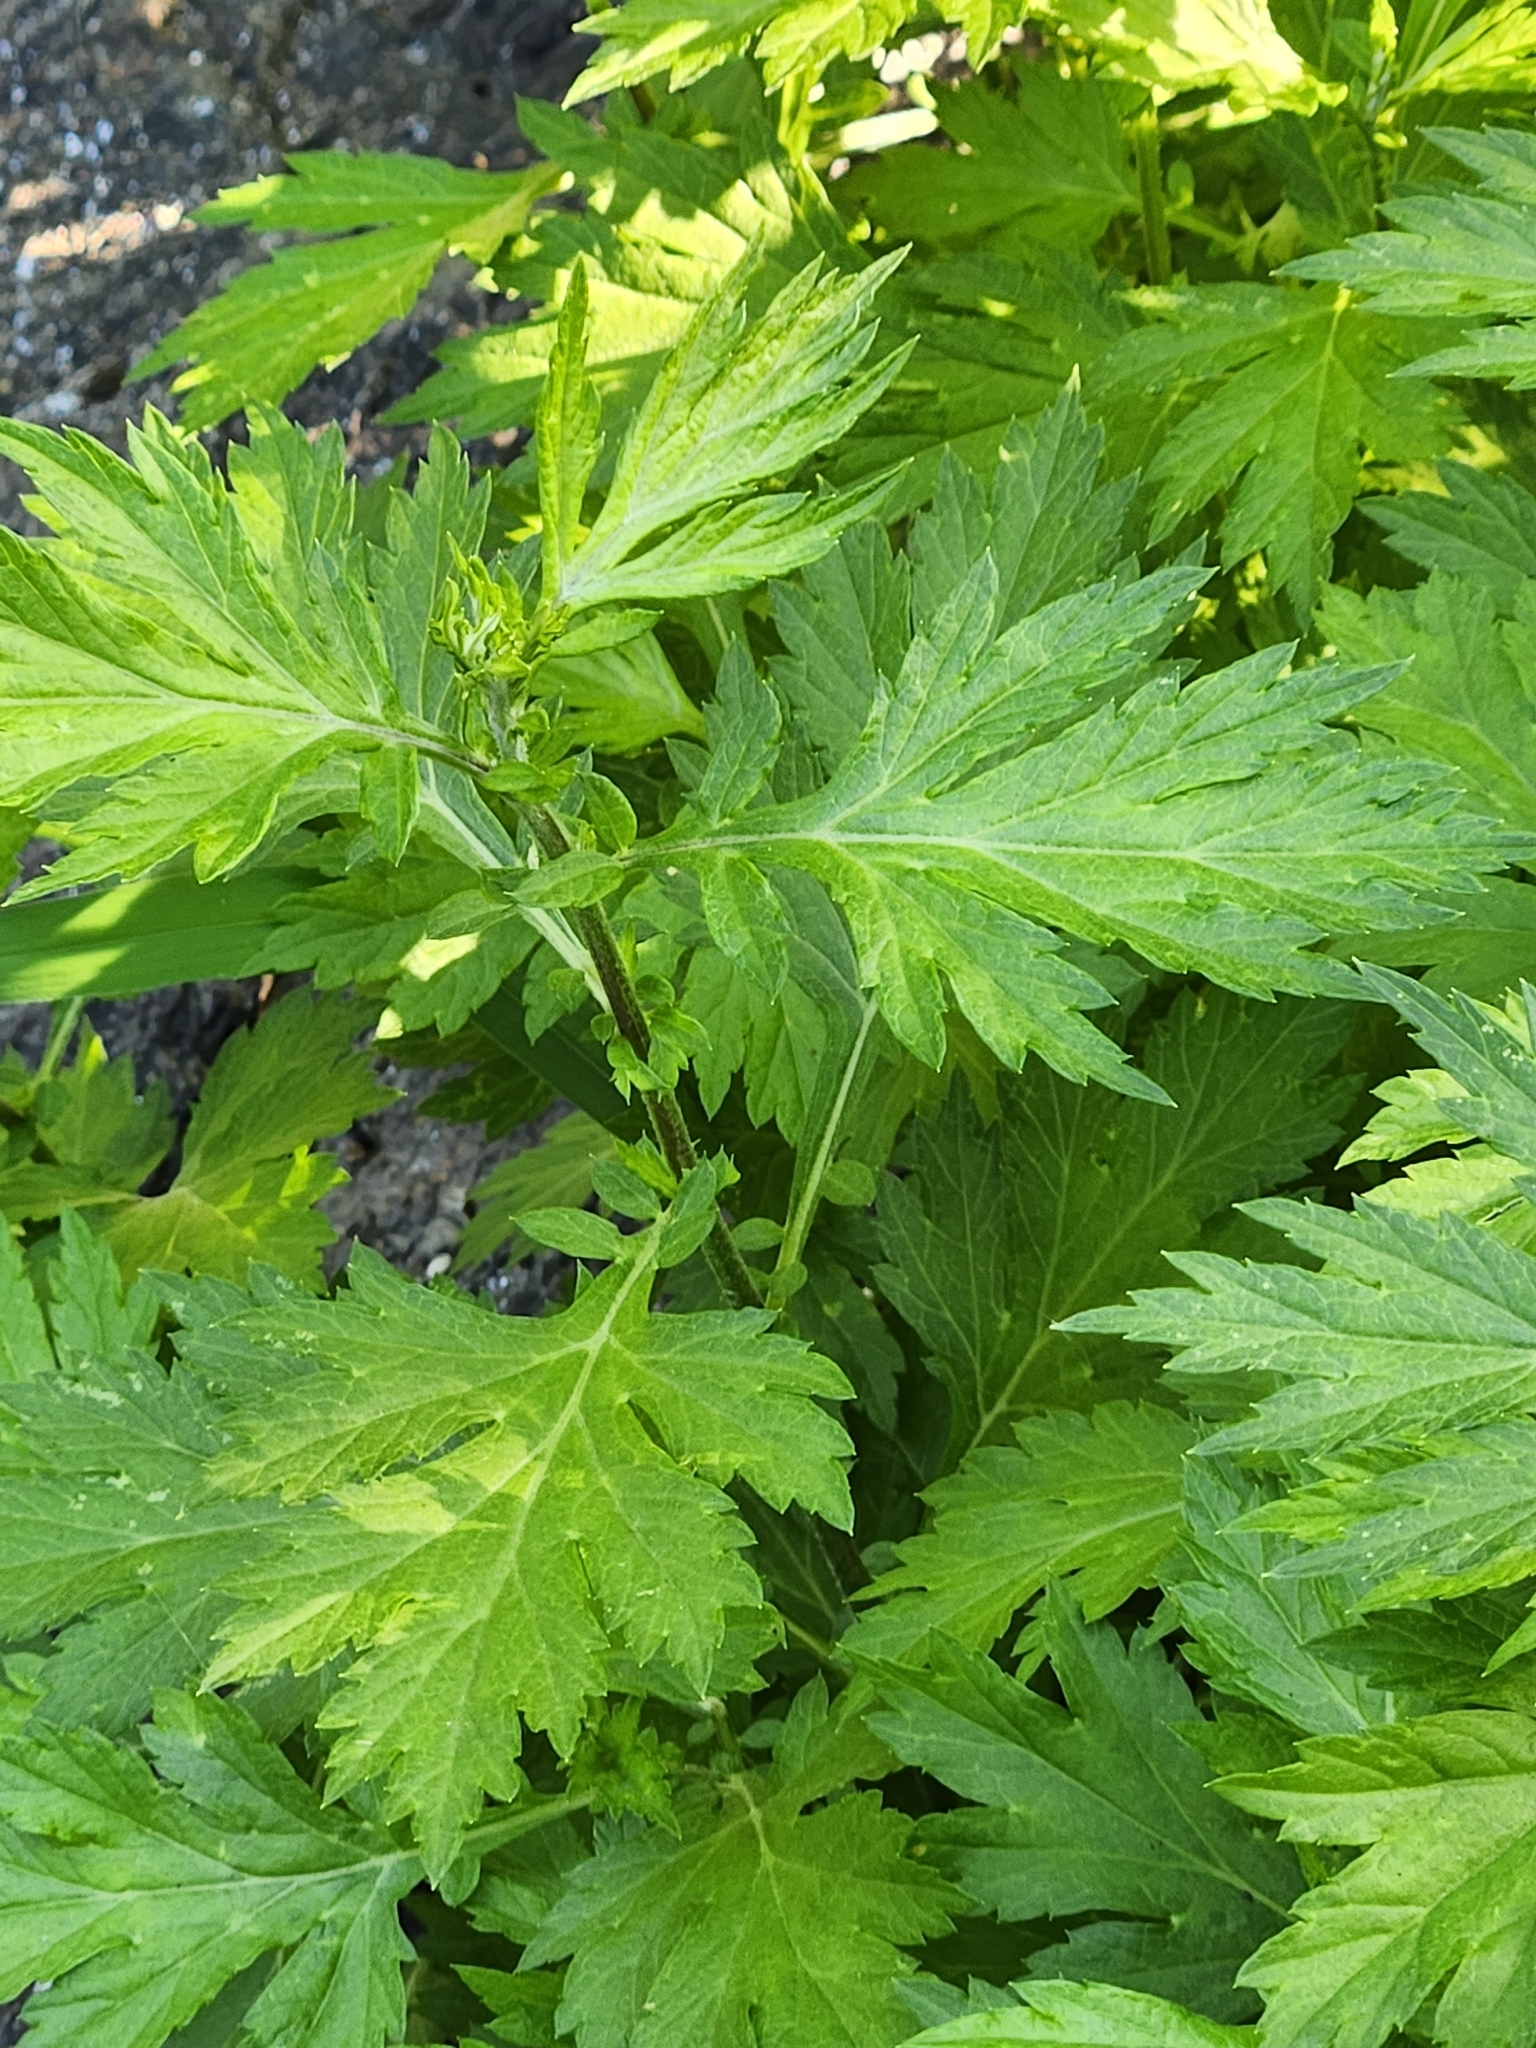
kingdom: Plantae
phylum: Tracheophyta
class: Magnoliopsida
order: Asterales
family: Asteraceae
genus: Artemisia
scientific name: Artemisia vulgaris
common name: Mugwort
